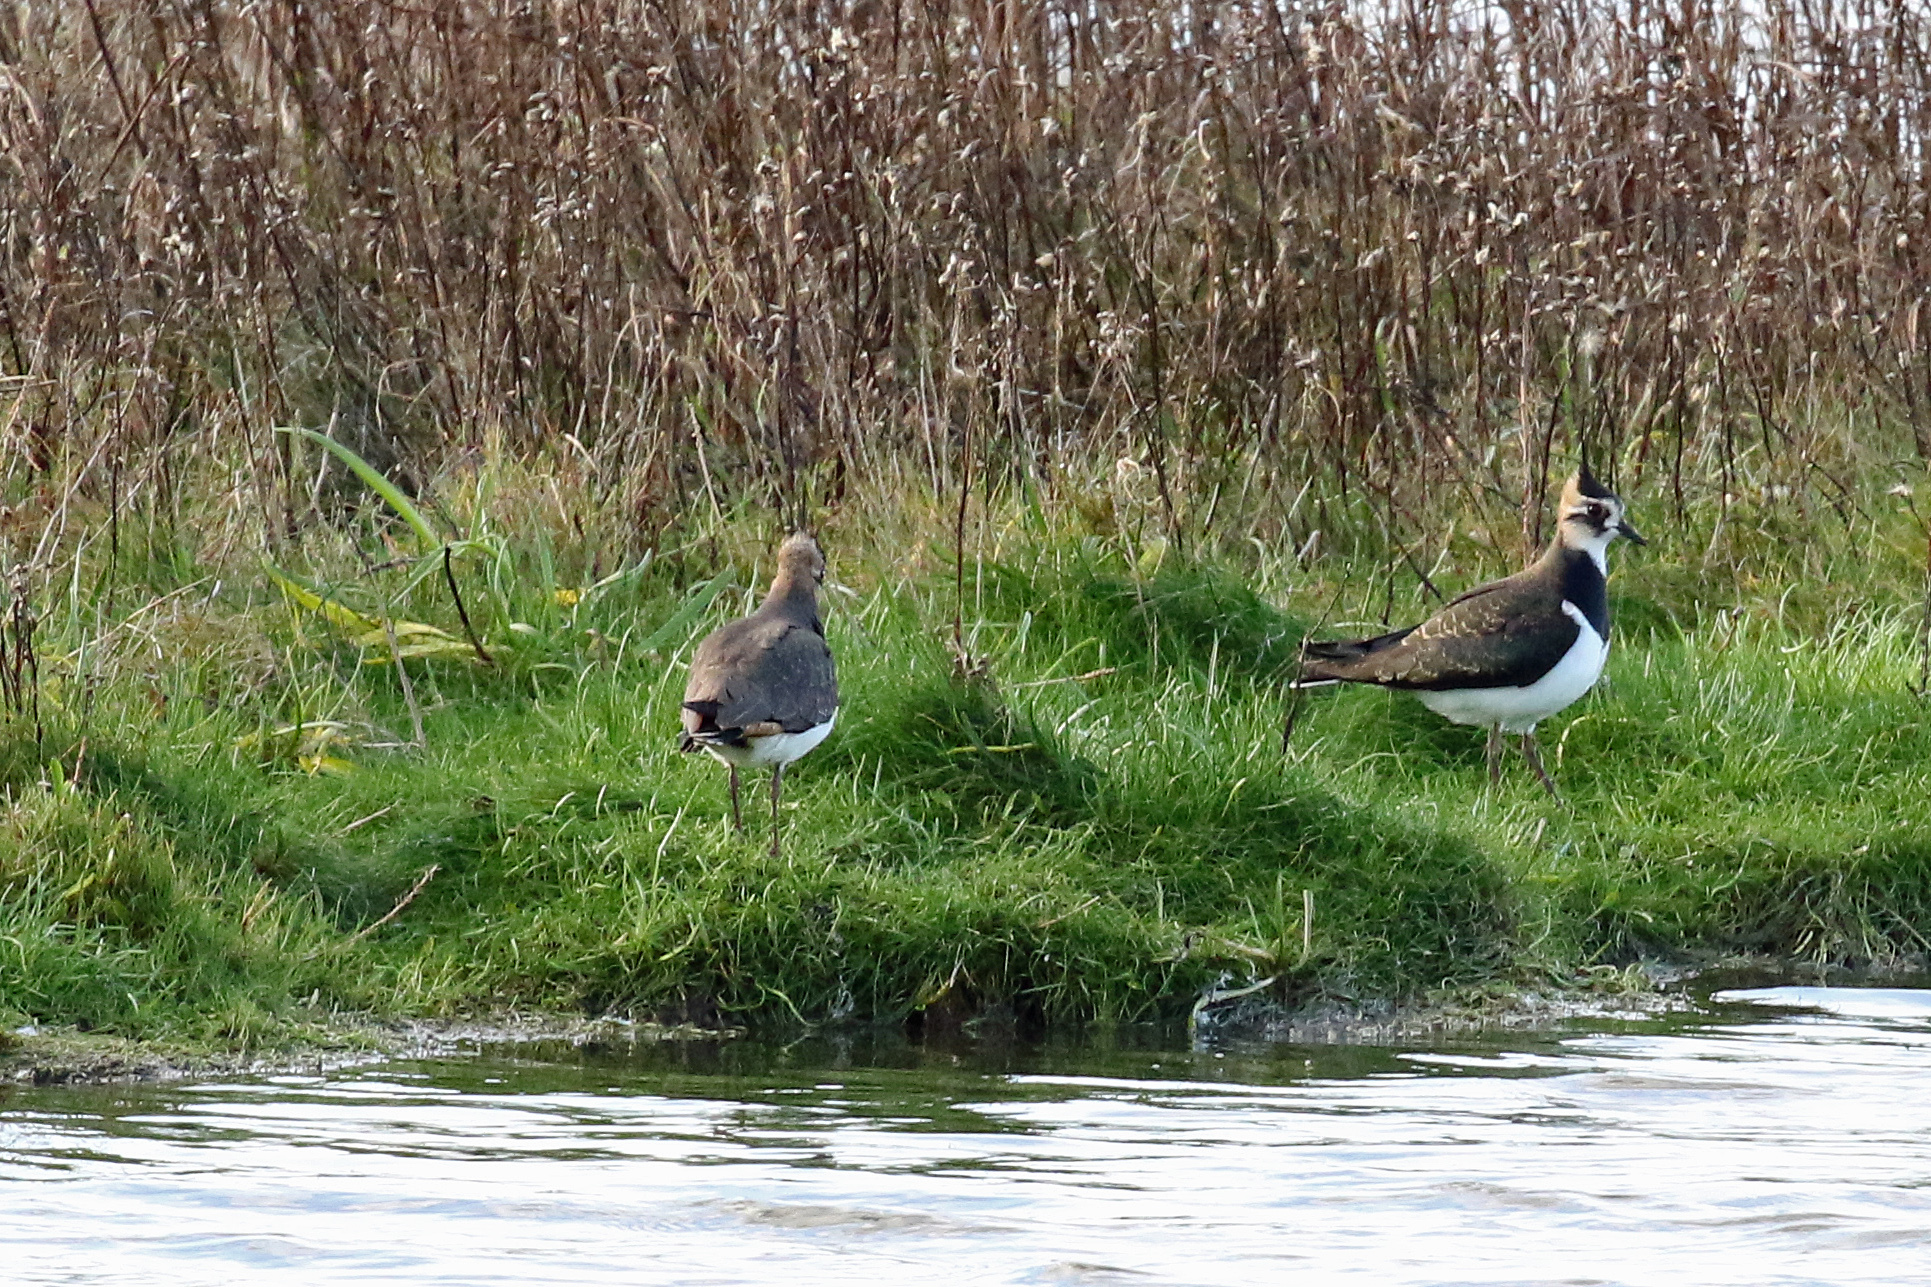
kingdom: Animalia
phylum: Chordata
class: Aves
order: Charadriiformes
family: Charadriidae
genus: Vanellus
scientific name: Vanellus vanellus
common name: Northern lapwing
